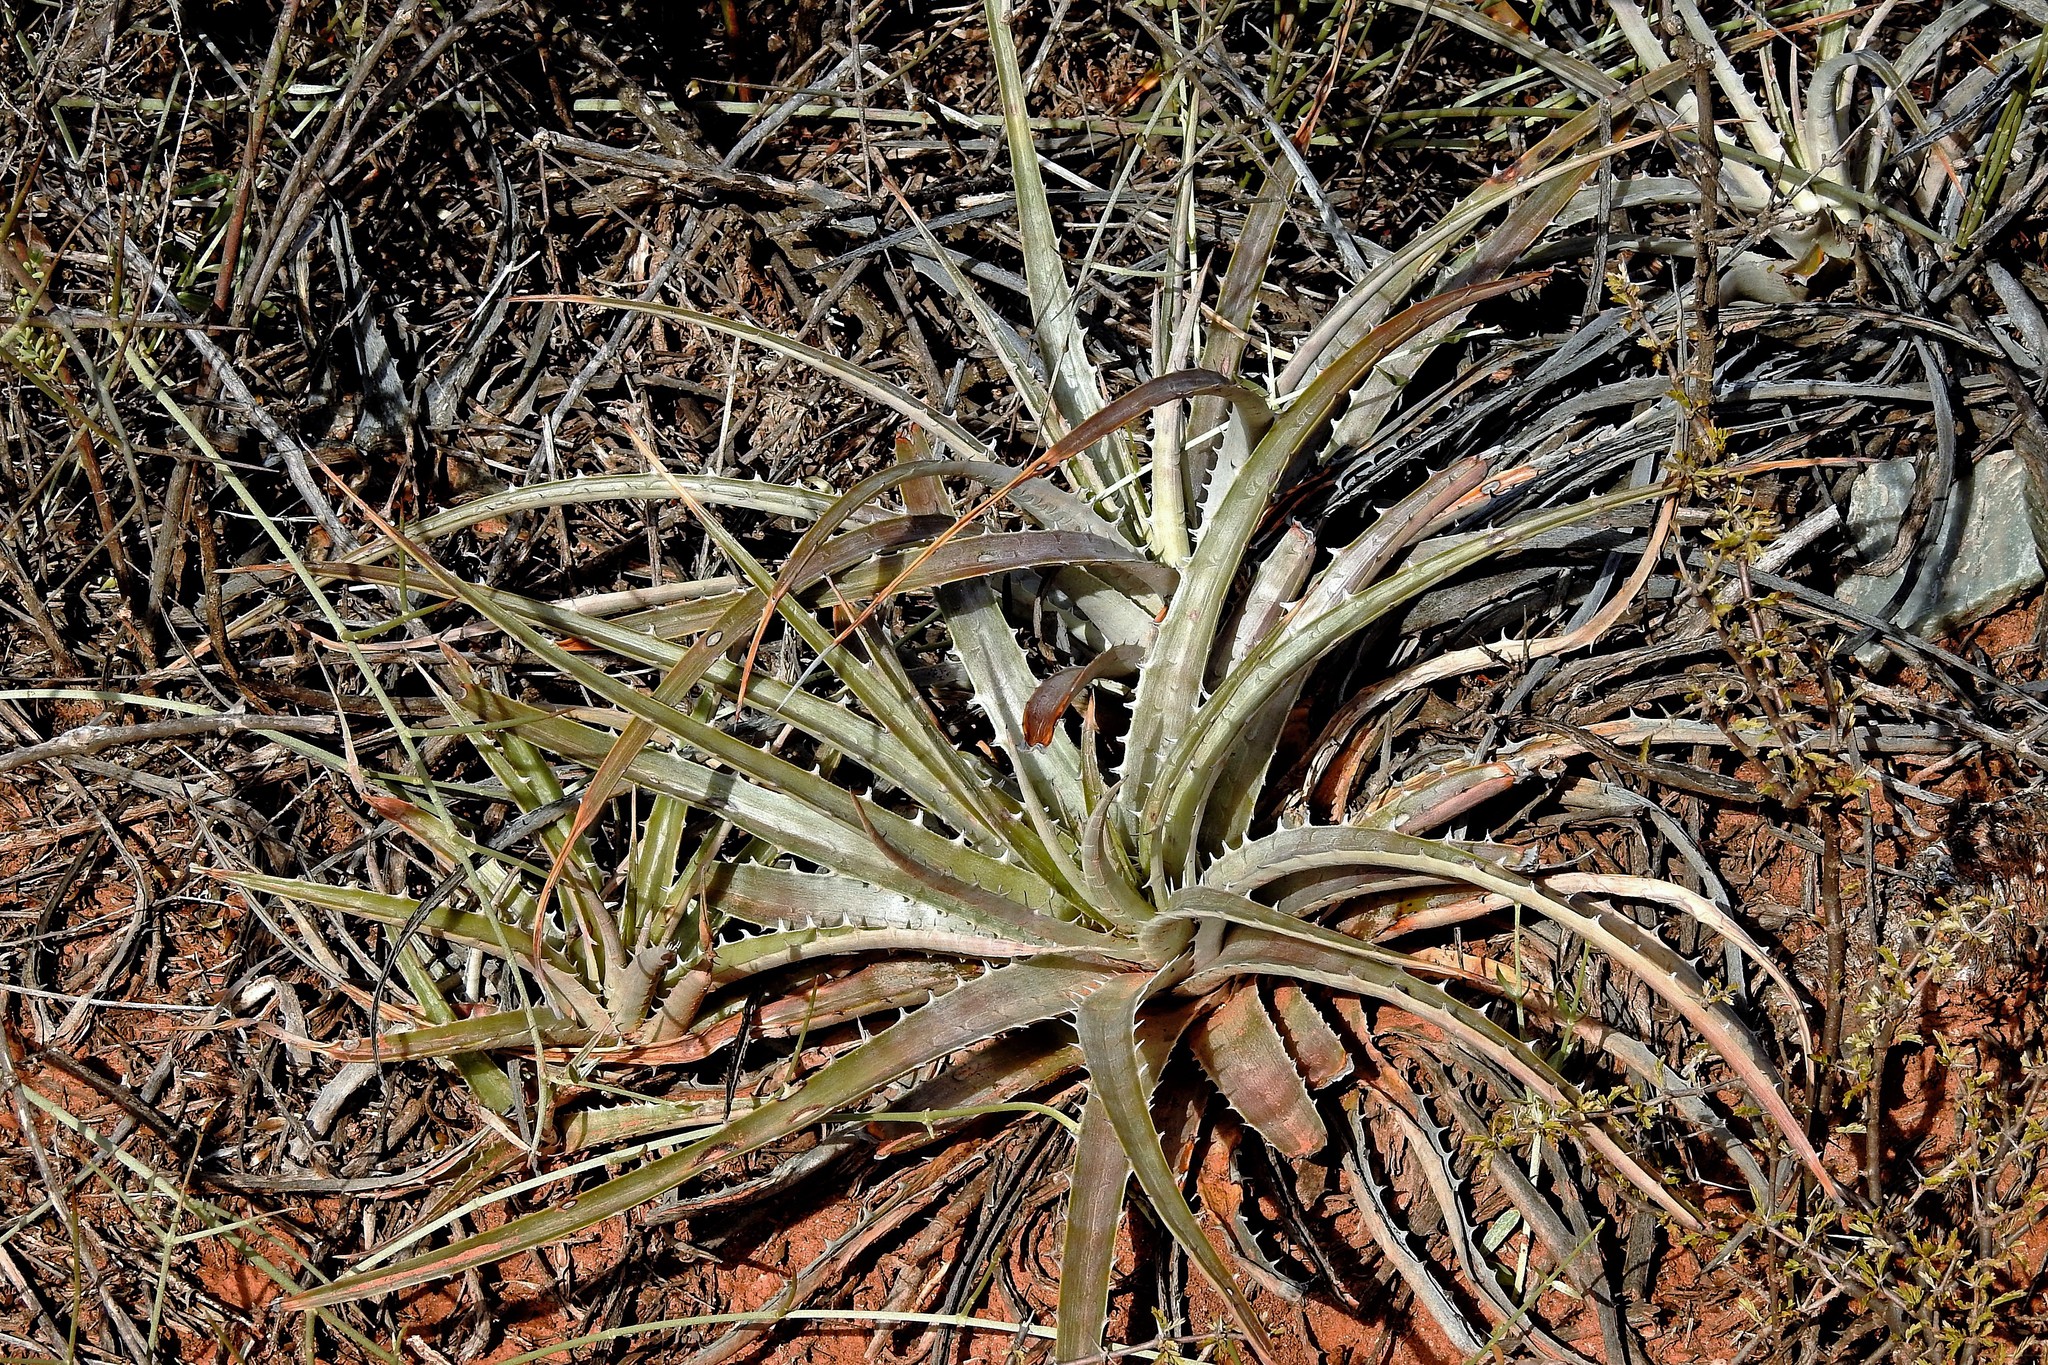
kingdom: Plantae
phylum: Tracheophyta
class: Liliopsida
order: Poales
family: Bromeliaceae
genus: Deinacanthon
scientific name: Deinacanthon urbanianum
